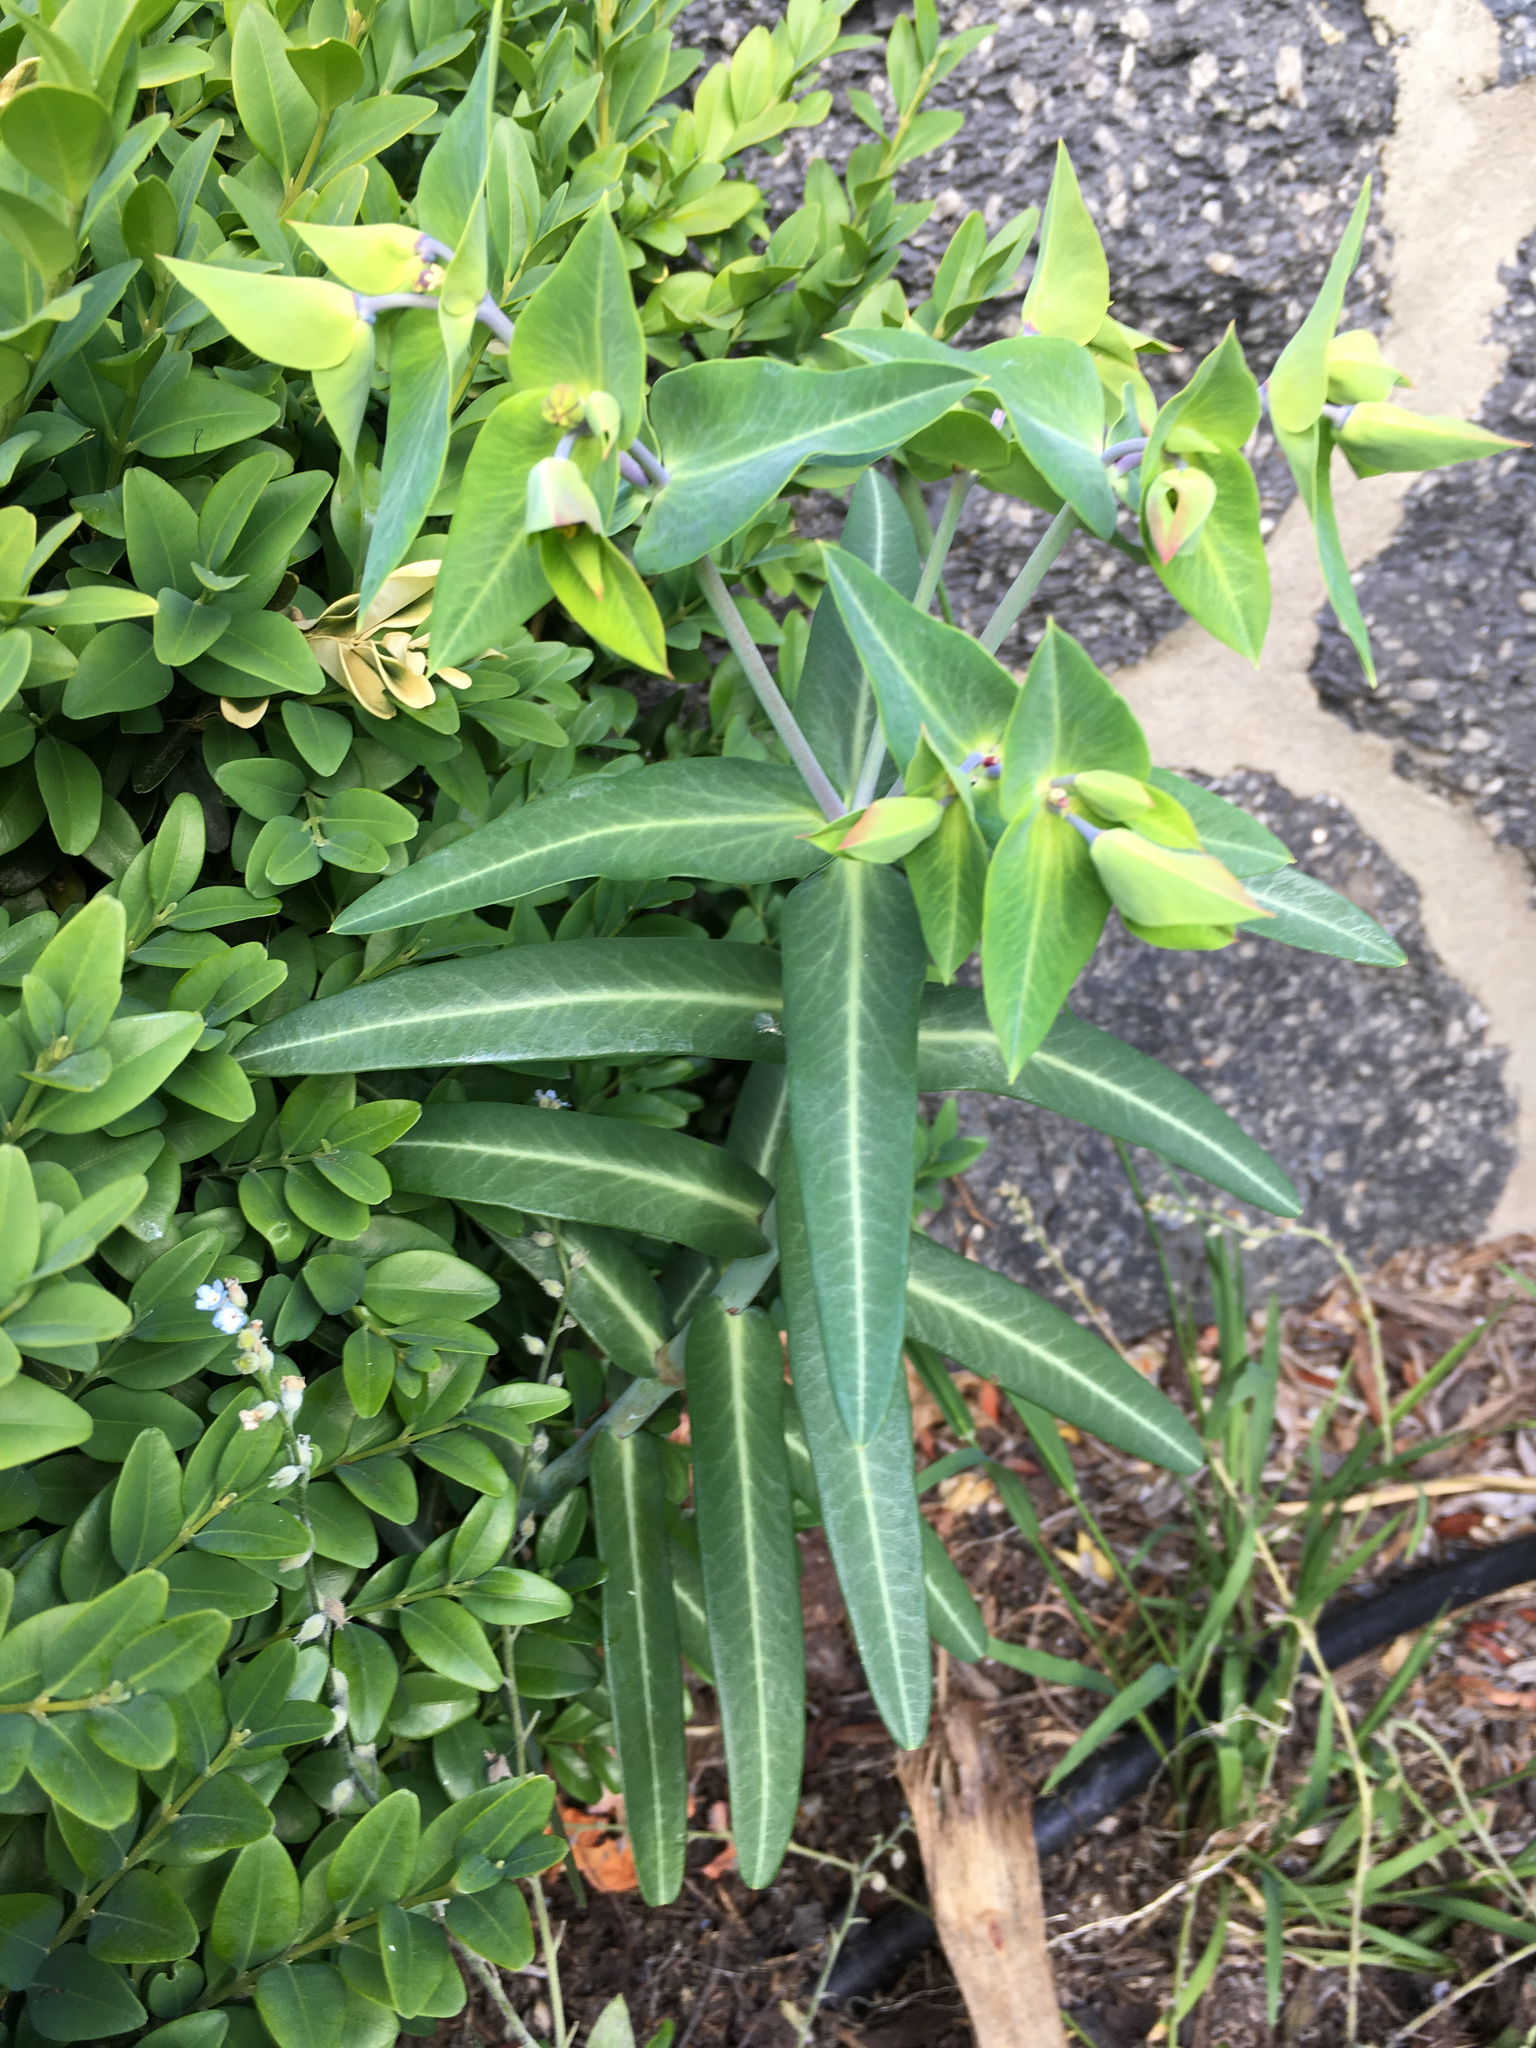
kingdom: Plantae
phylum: Tracheophyta
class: Magnoliopsida
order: Malpighiales
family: Euphorbiaceae
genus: Euphorbia
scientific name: Euphorbia lathyris
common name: Caper spurge
